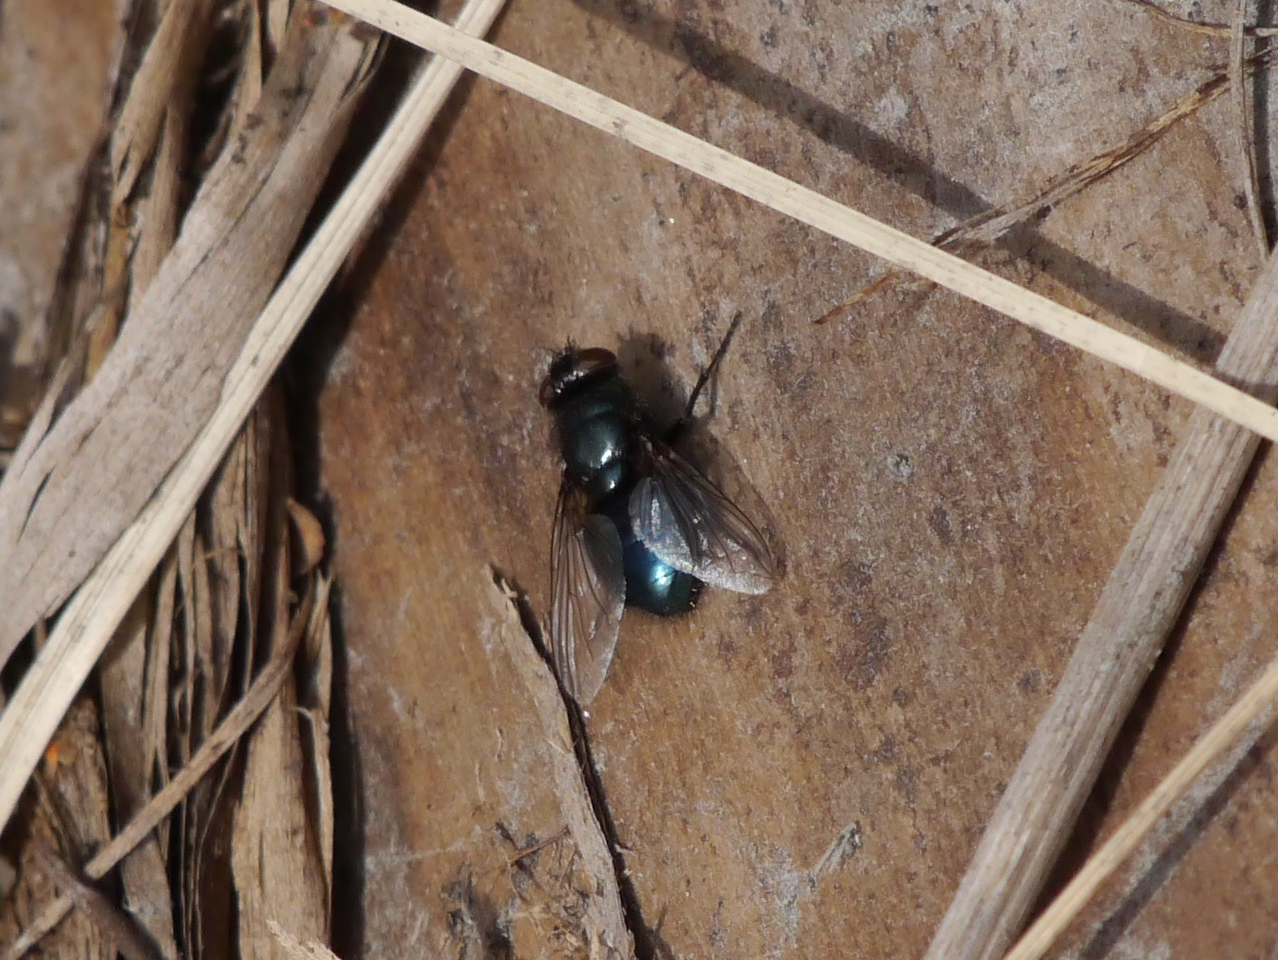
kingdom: Animalia
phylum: Arthropoda
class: Insecta
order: Diptera
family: Calliphoridae
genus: Protophormia
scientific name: Protophormia terraenovae
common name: Blackbottle
